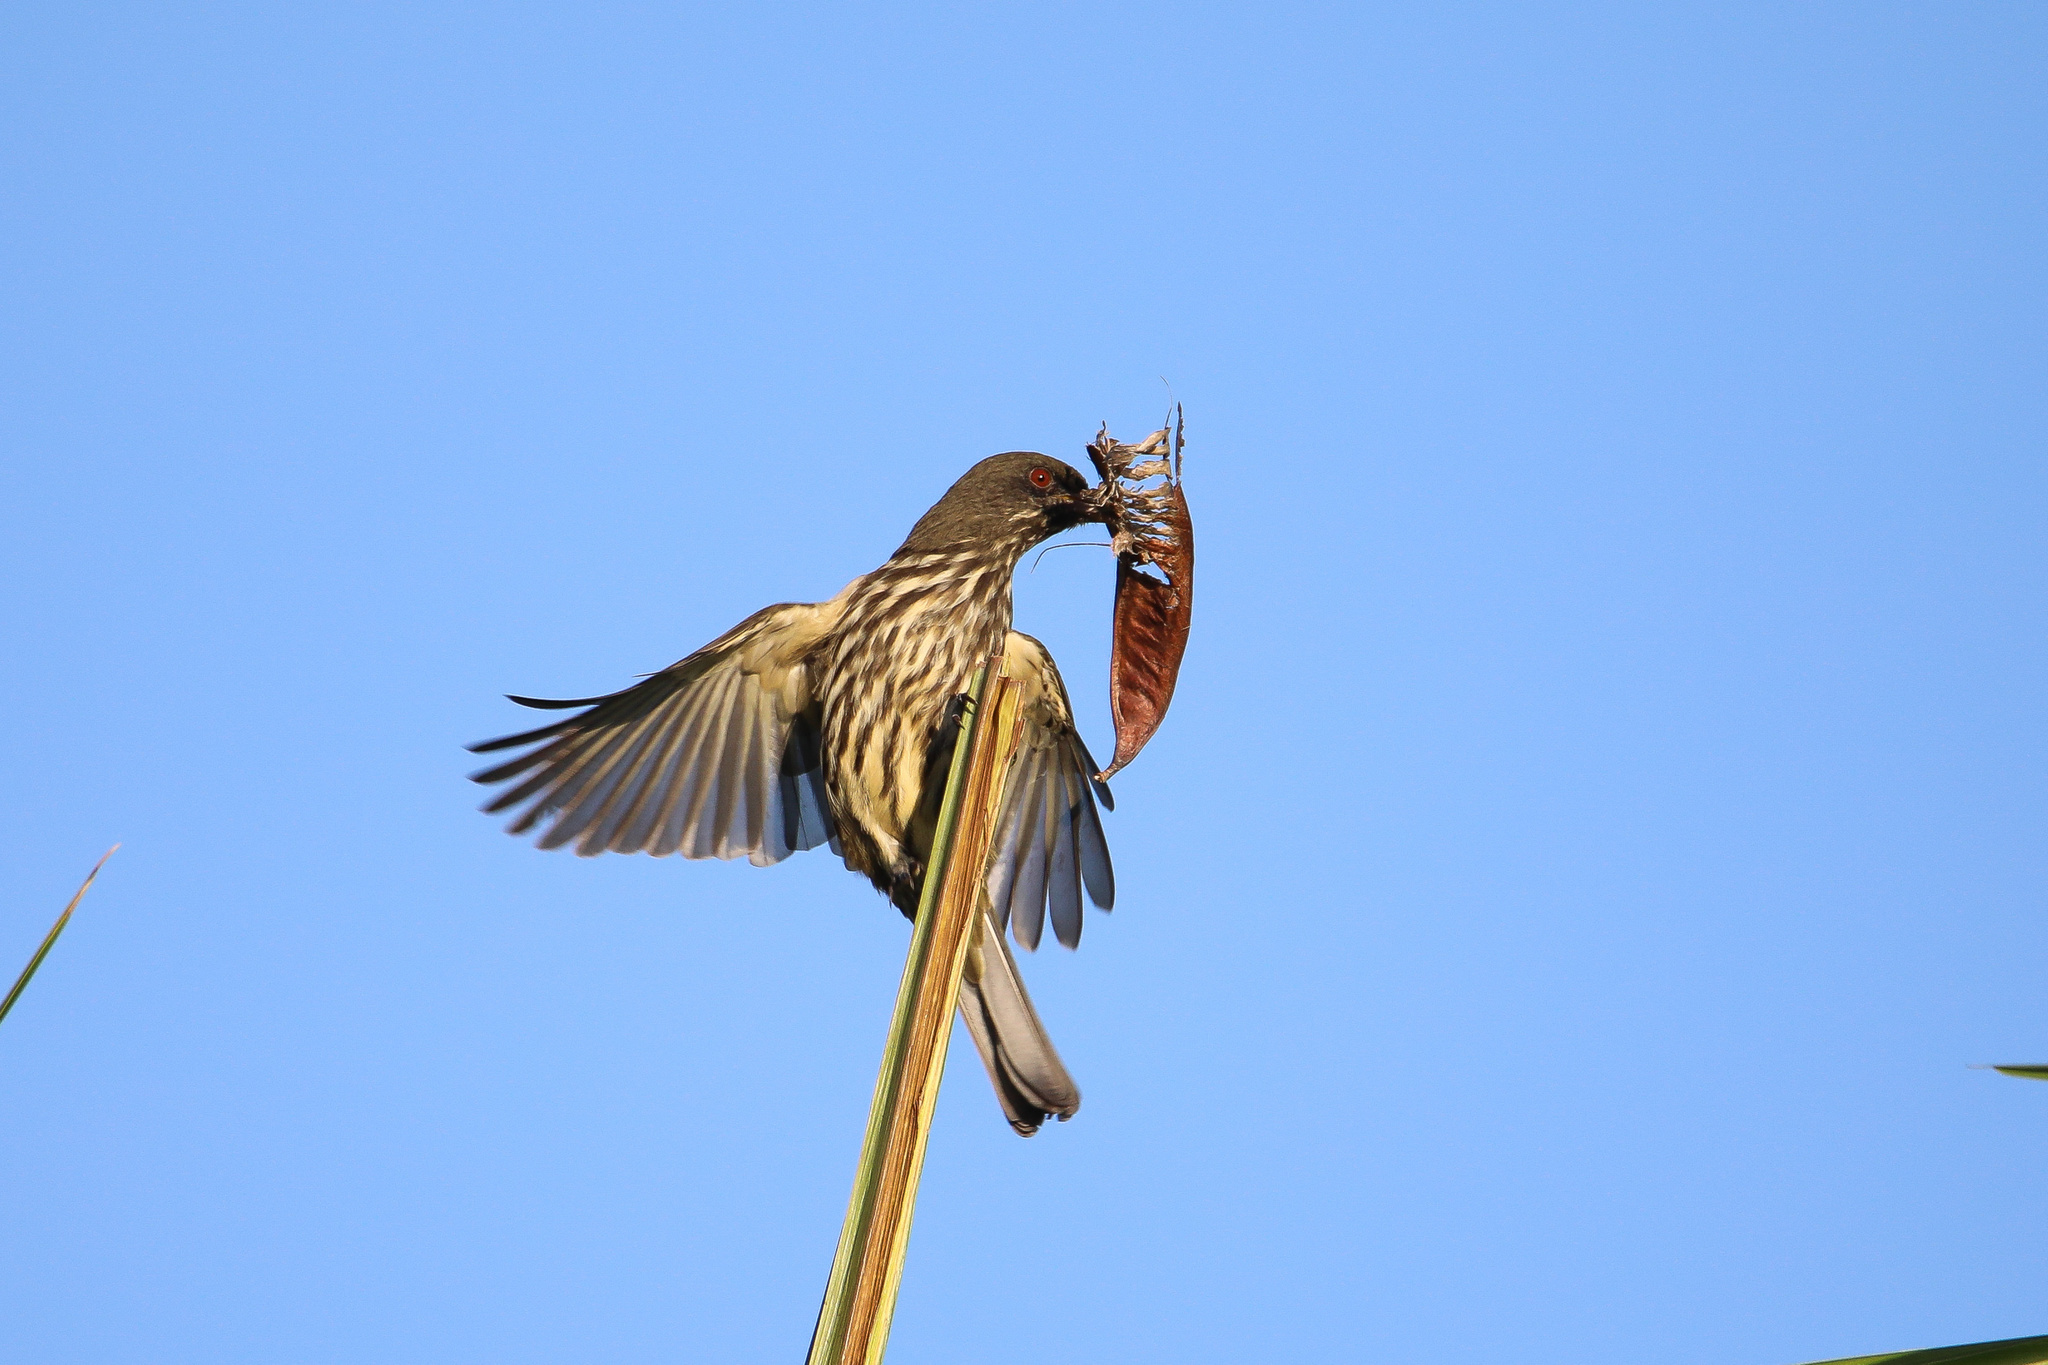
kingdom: Animalia
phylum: Chordata
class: Aves
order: Passeriformes
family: Dulidae
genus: Dulus
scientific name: Dulus dominicus
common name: Palmchat
